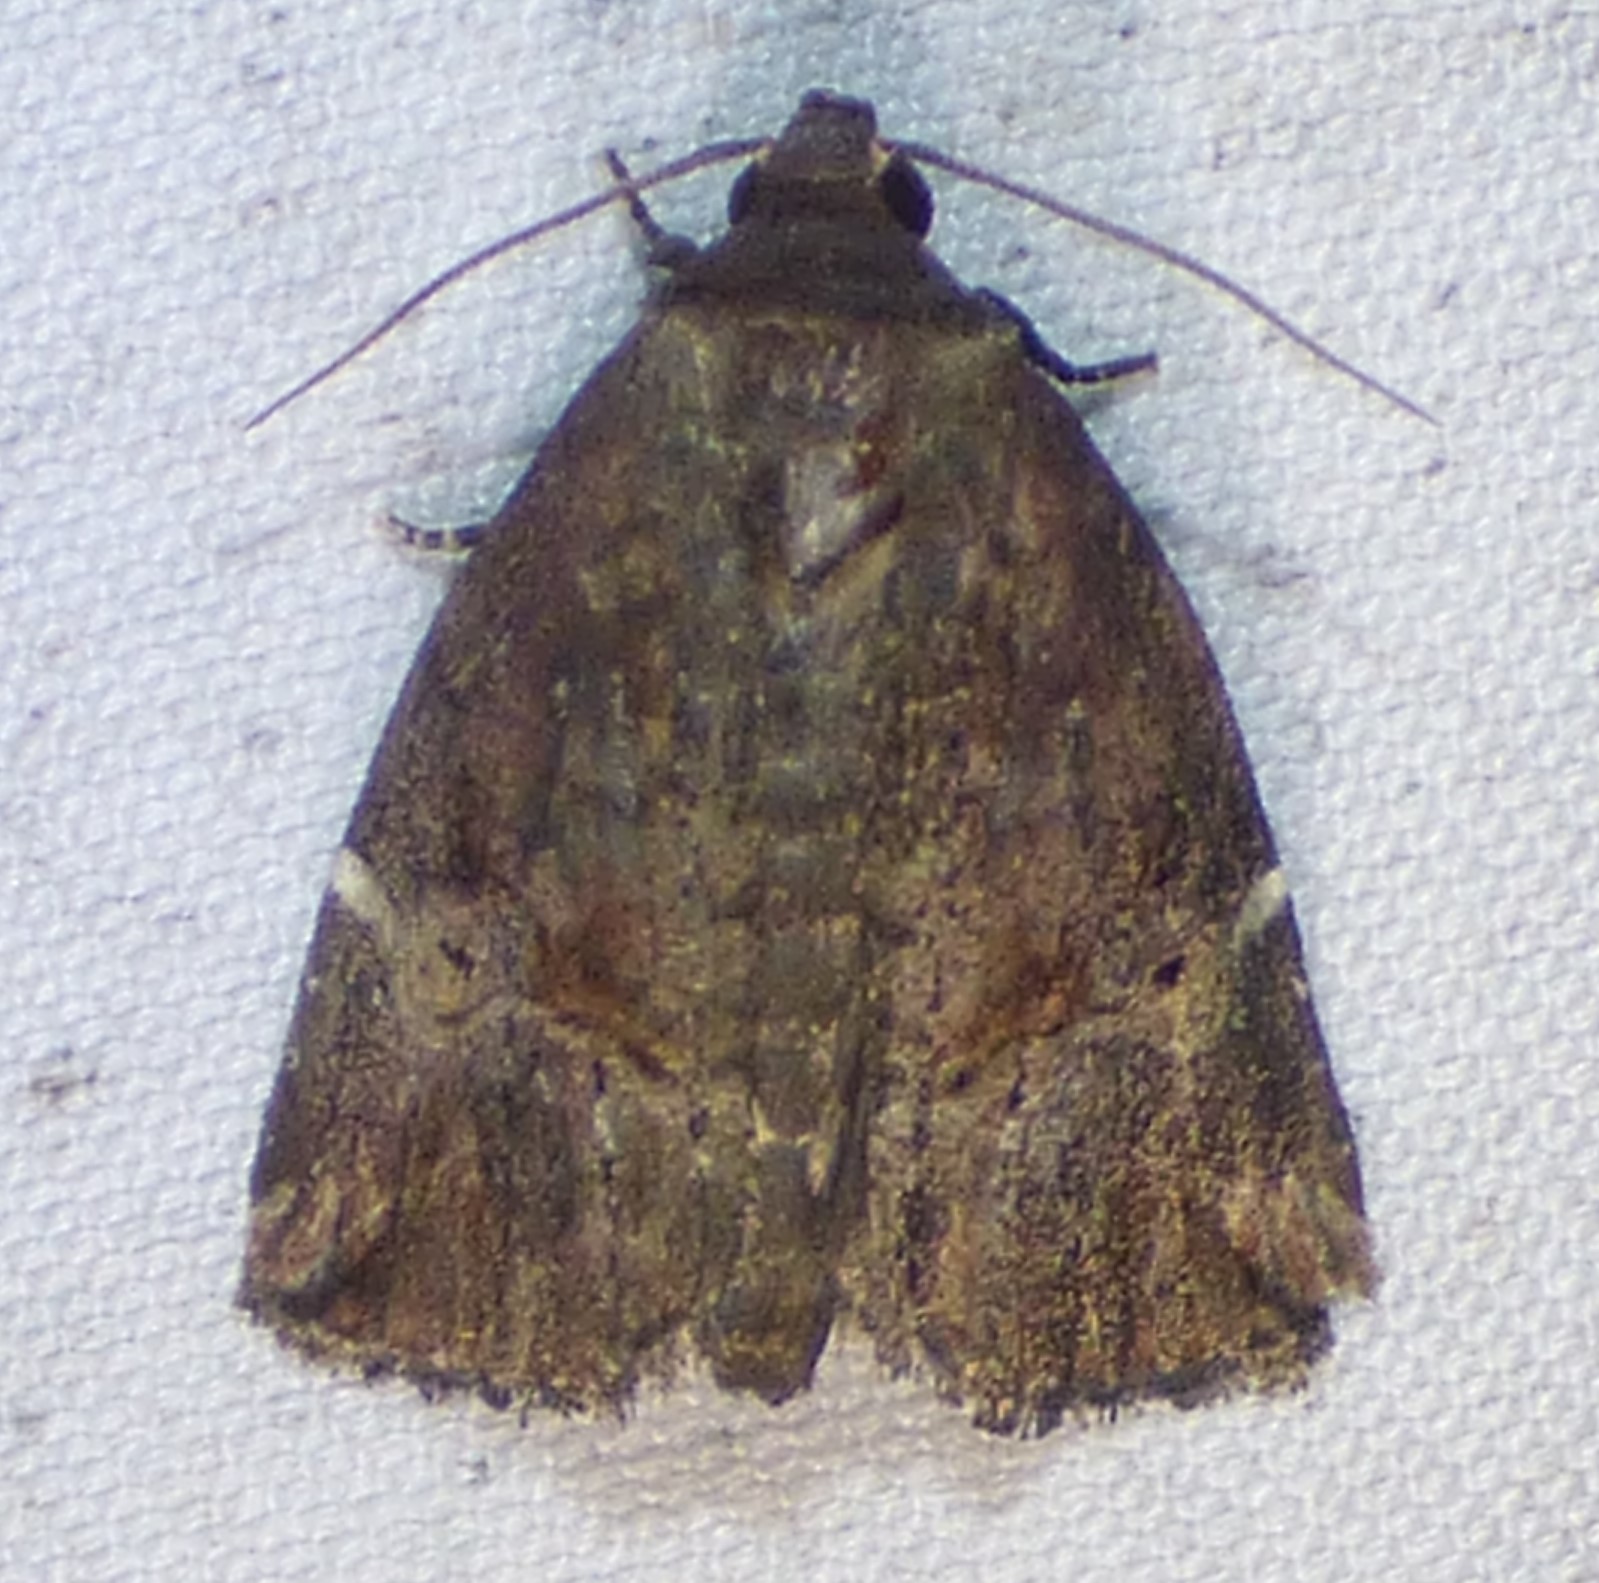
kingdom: Animalia
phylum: Arthropoda
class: Insecta
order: Lepidoptera
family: Noctuidae
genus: Elaphria
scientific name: Elaphria versicolor
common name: Fir harlequin
